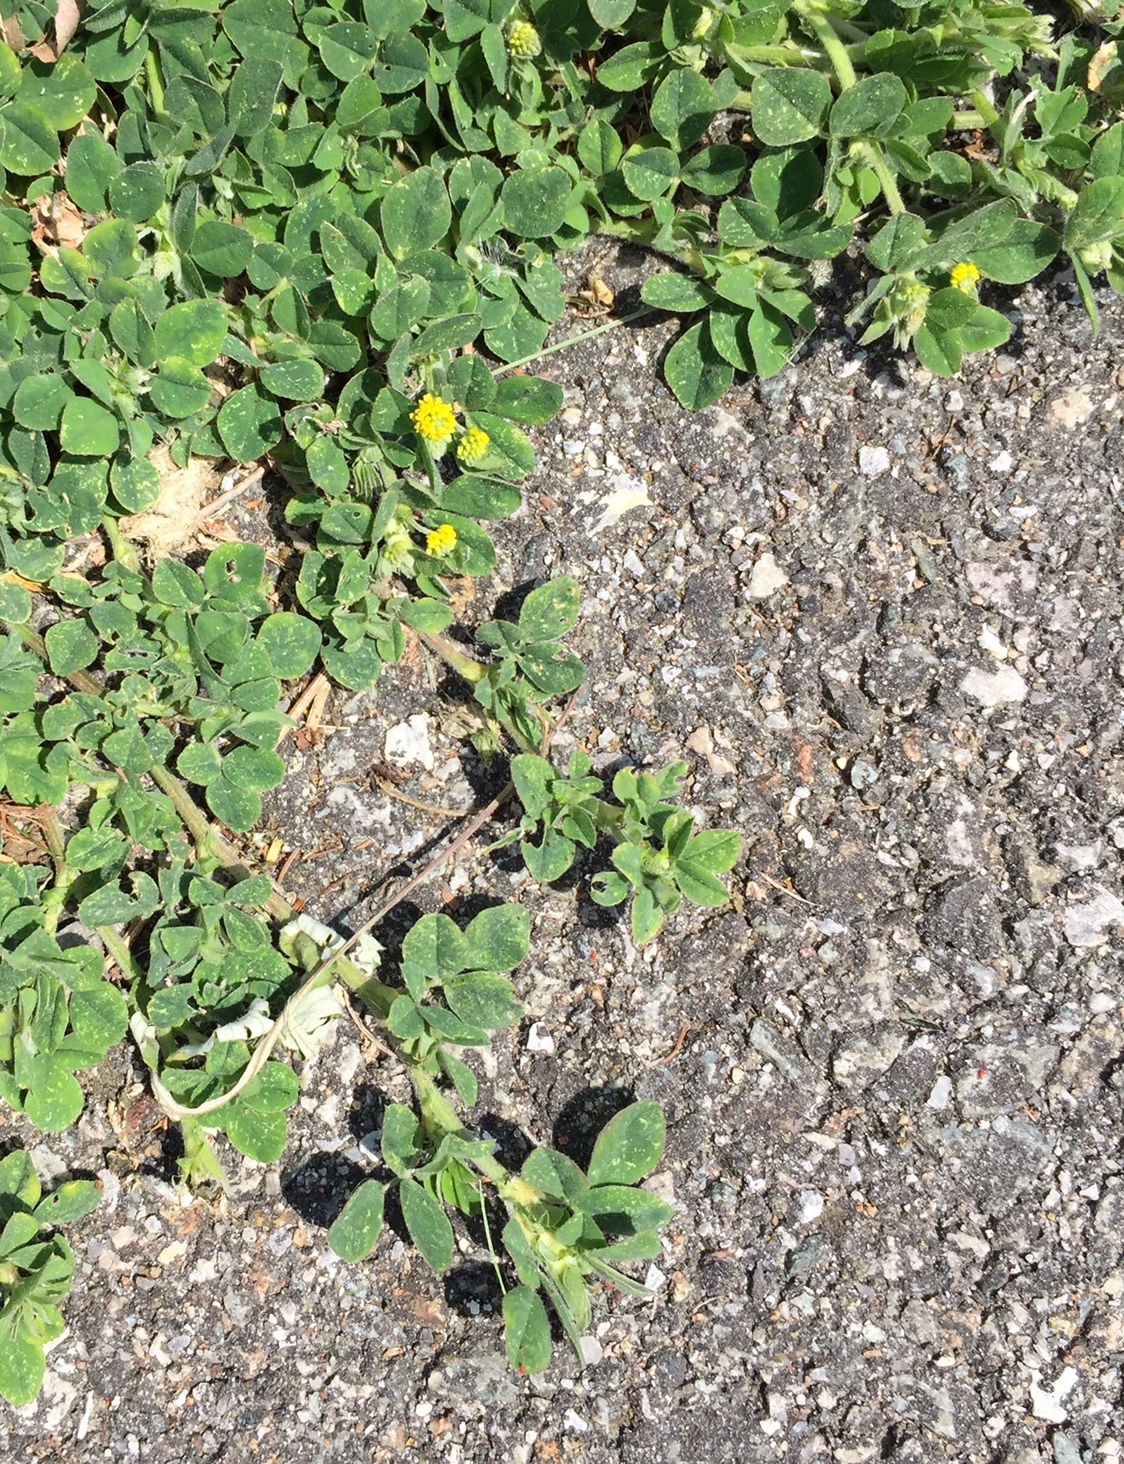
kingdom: Plantae
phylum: Tracheophyta
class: Magnoliopsida
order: Fabales
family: Fabaceae
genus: Medicago
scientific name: Medicago lupulina
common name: Black medick
